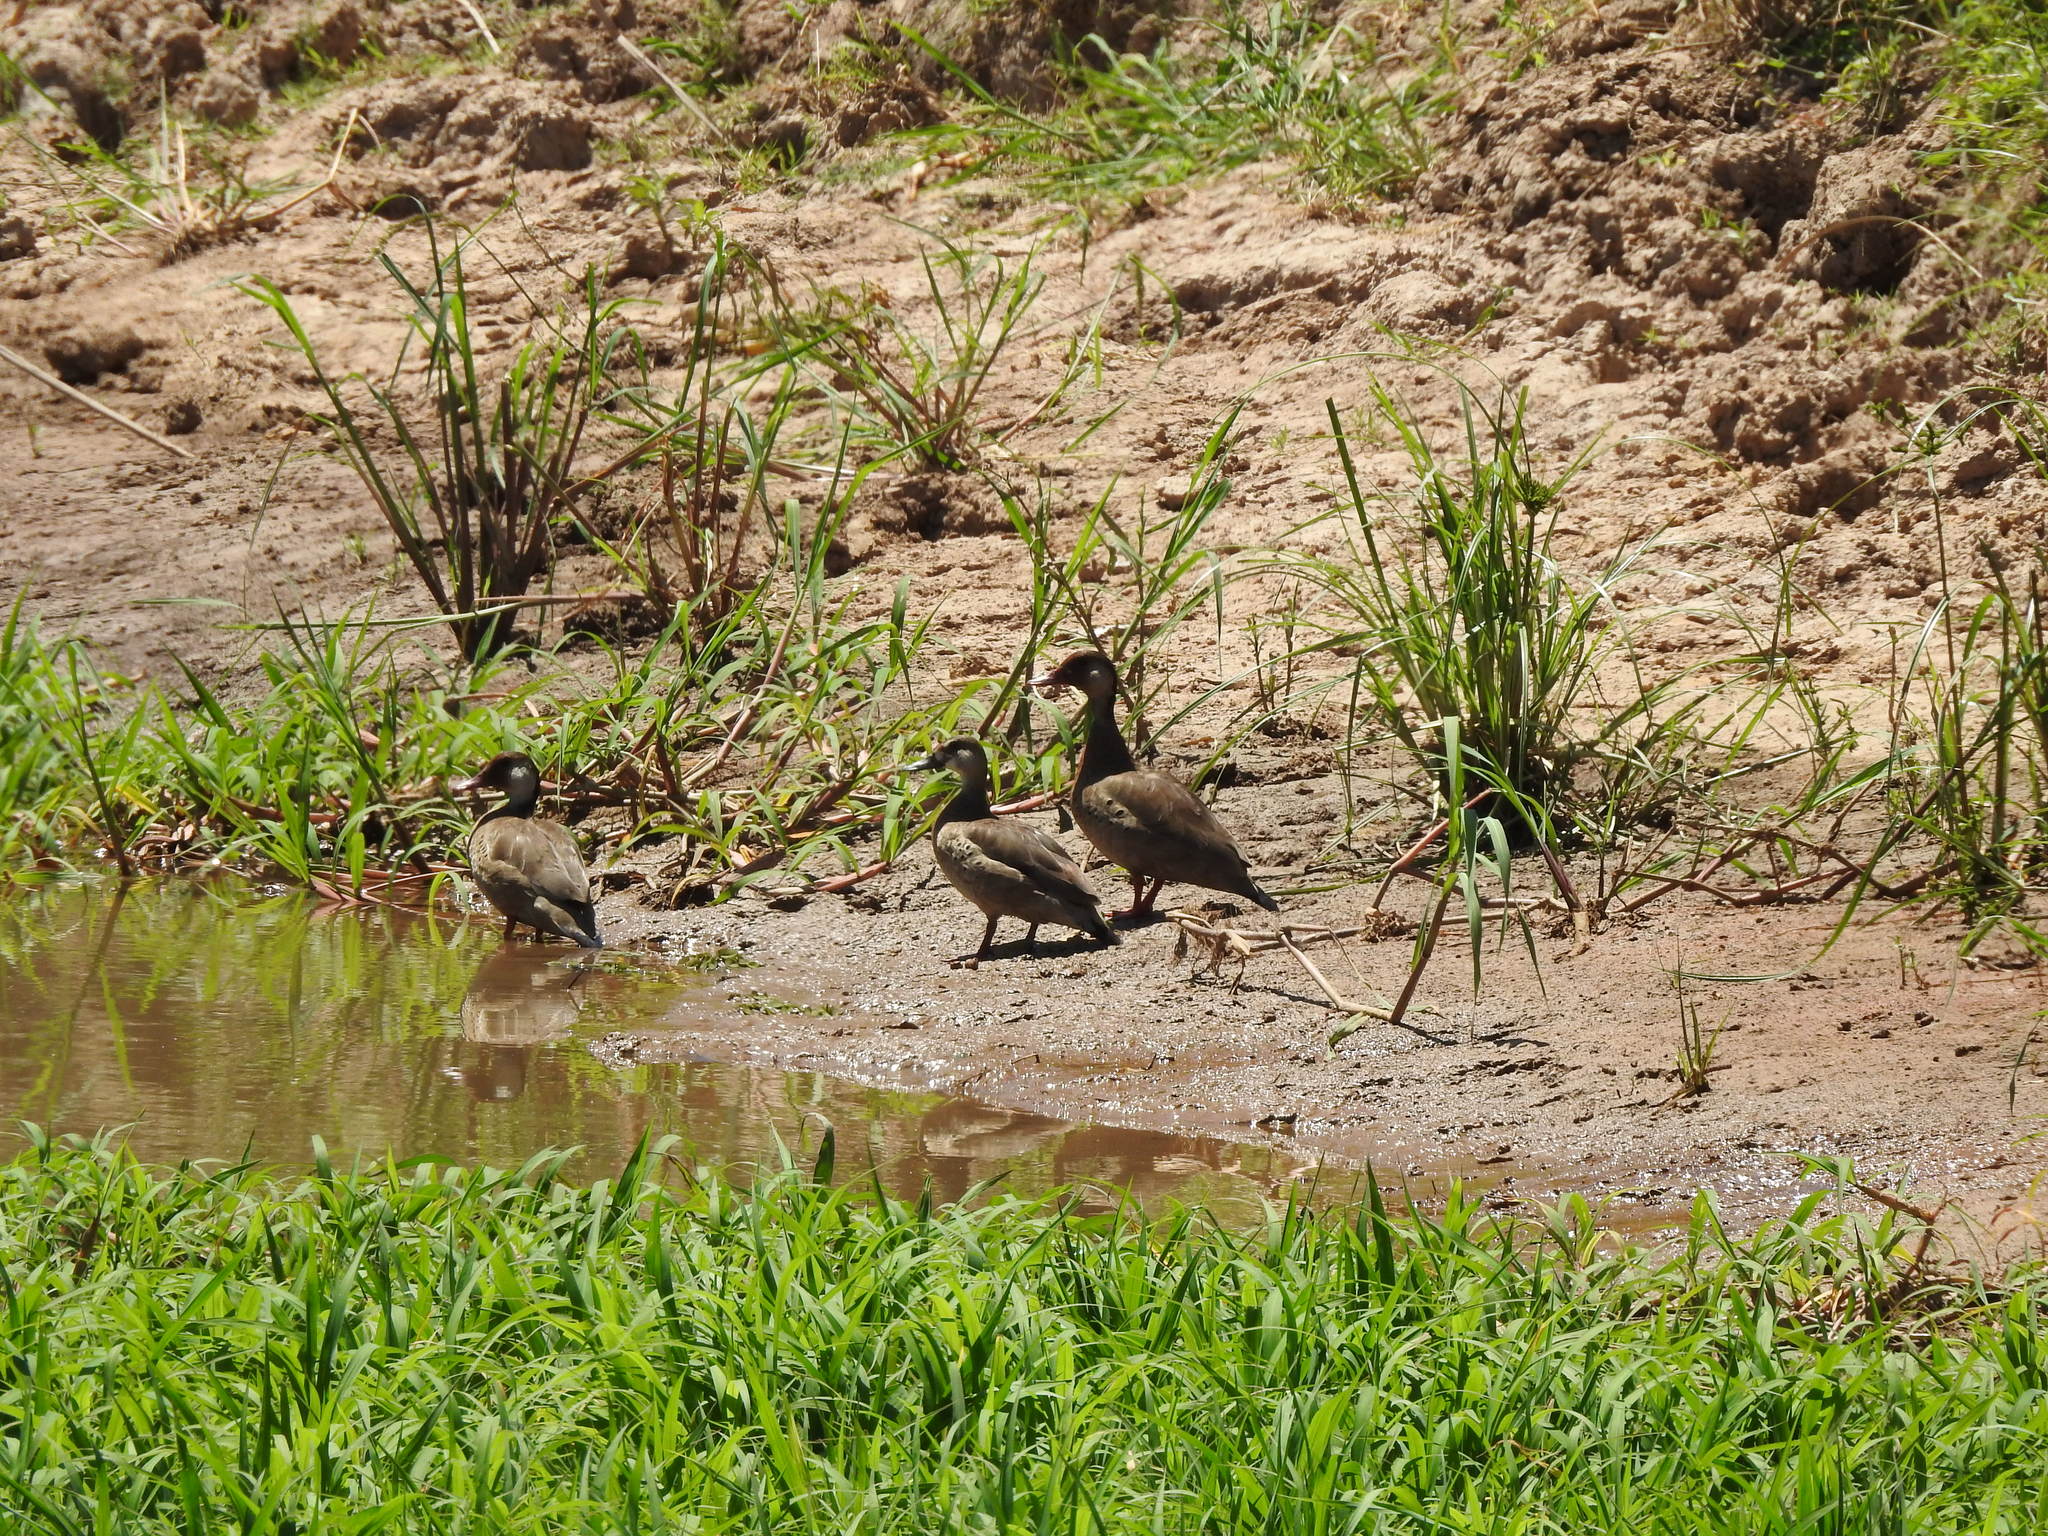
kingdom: Animalia
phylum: Chordata
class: Aves
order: Anseriformes
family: Anatidae
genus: Amazonetta
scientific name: Amazonetta brasiliensis
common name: Brazilian teal
